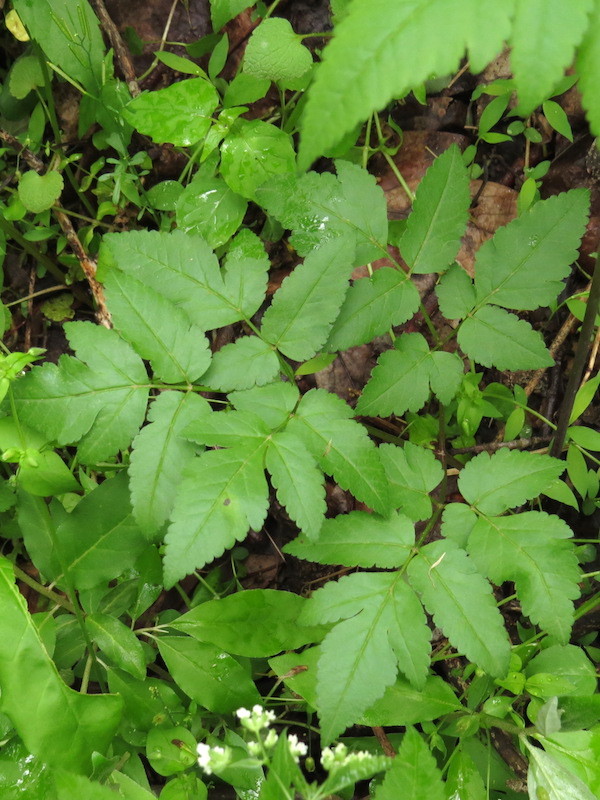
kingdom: Plantae
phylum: Tracheophyta
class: Magnoliopsida
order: Apiales
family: Apiaceae
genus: Osmorhiza
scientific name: Osmorhiza longistylis
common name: Smooth sweet cicely
